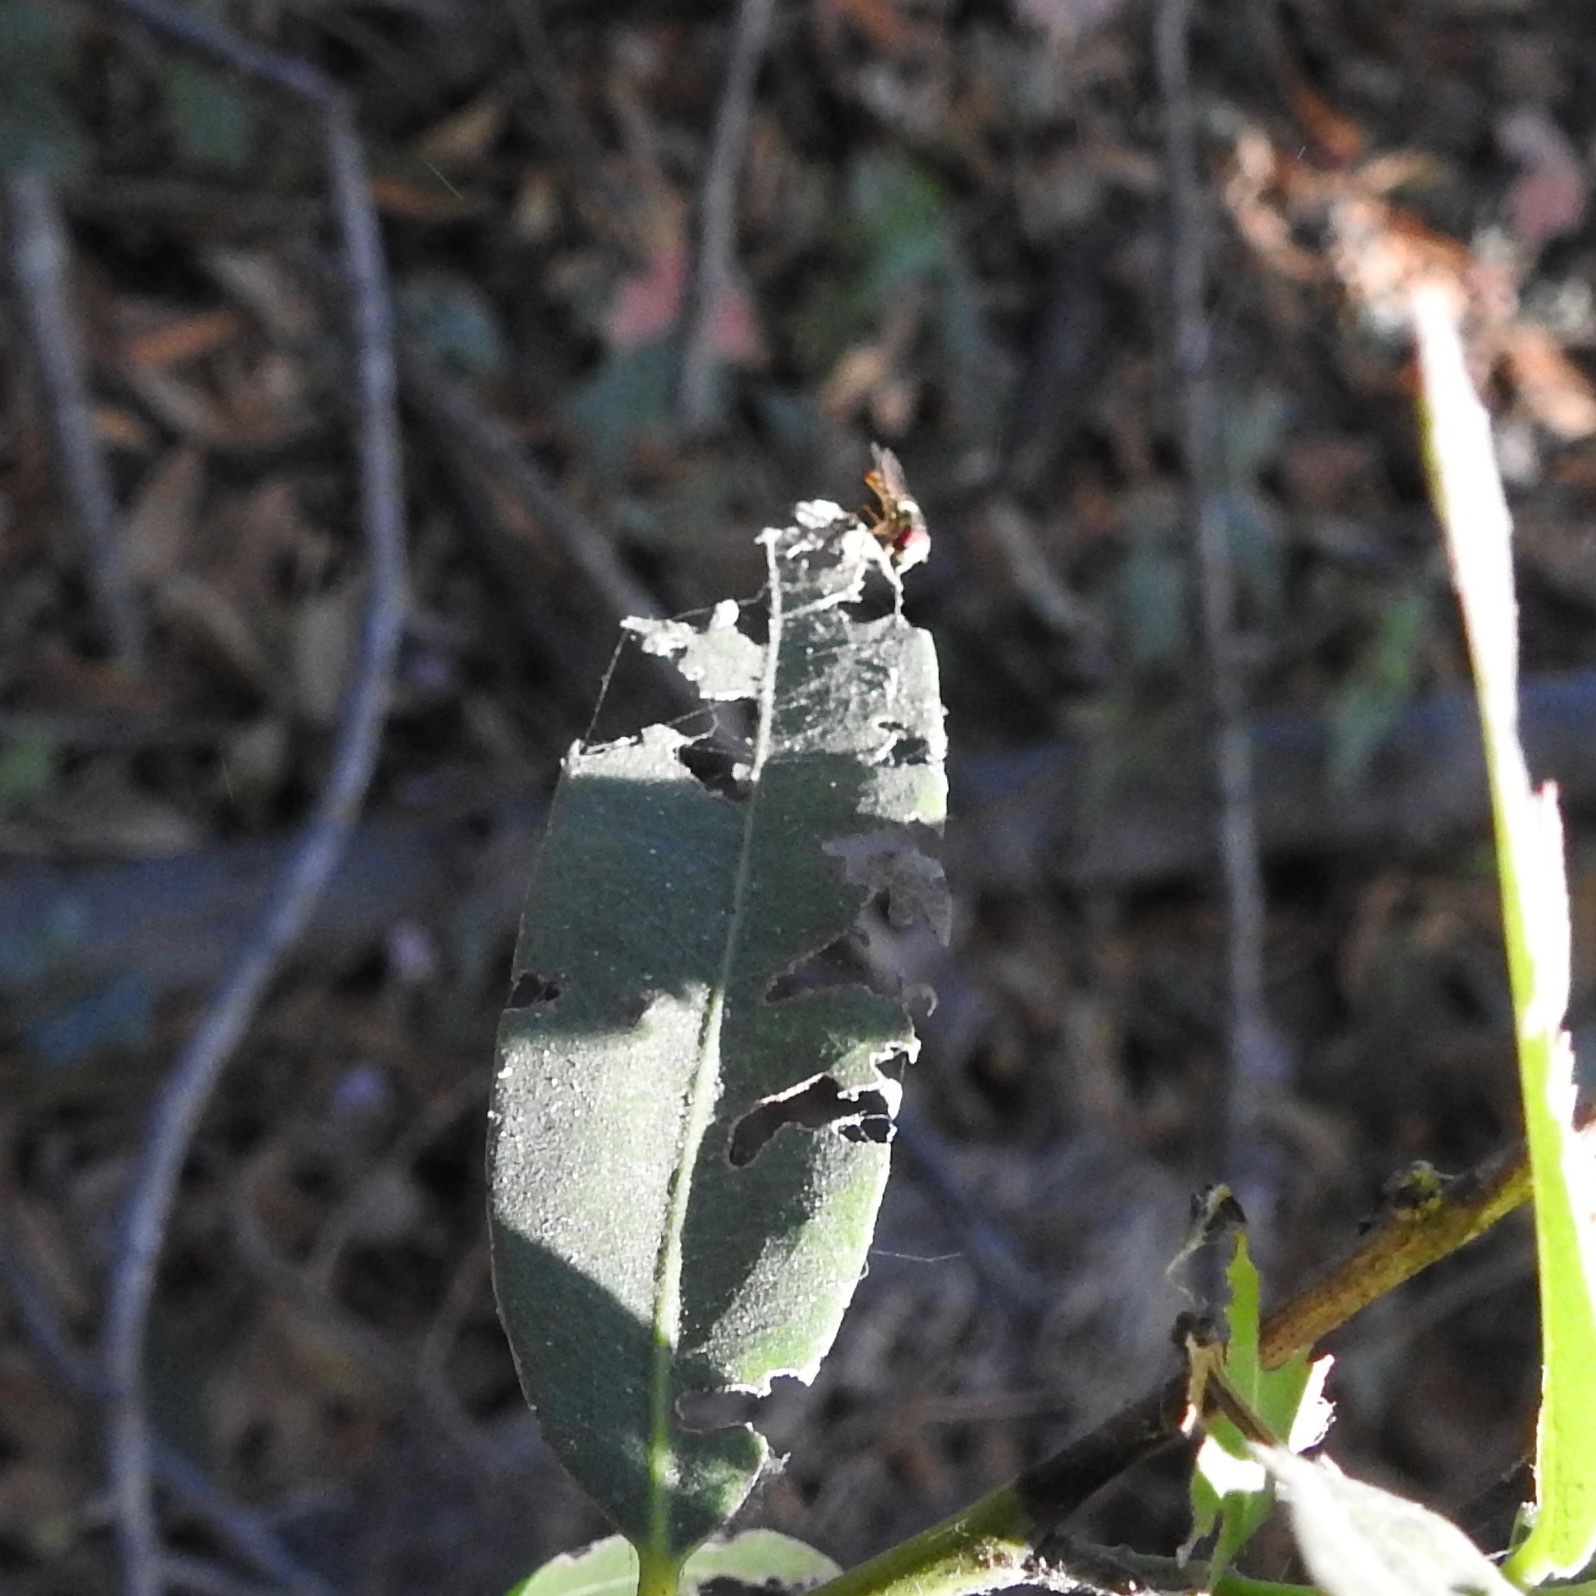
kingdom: Animalia
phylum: Arthropoda
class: Insecta
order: Diptera
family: Syrphidae
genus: Allograpta
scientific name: Allograpta
